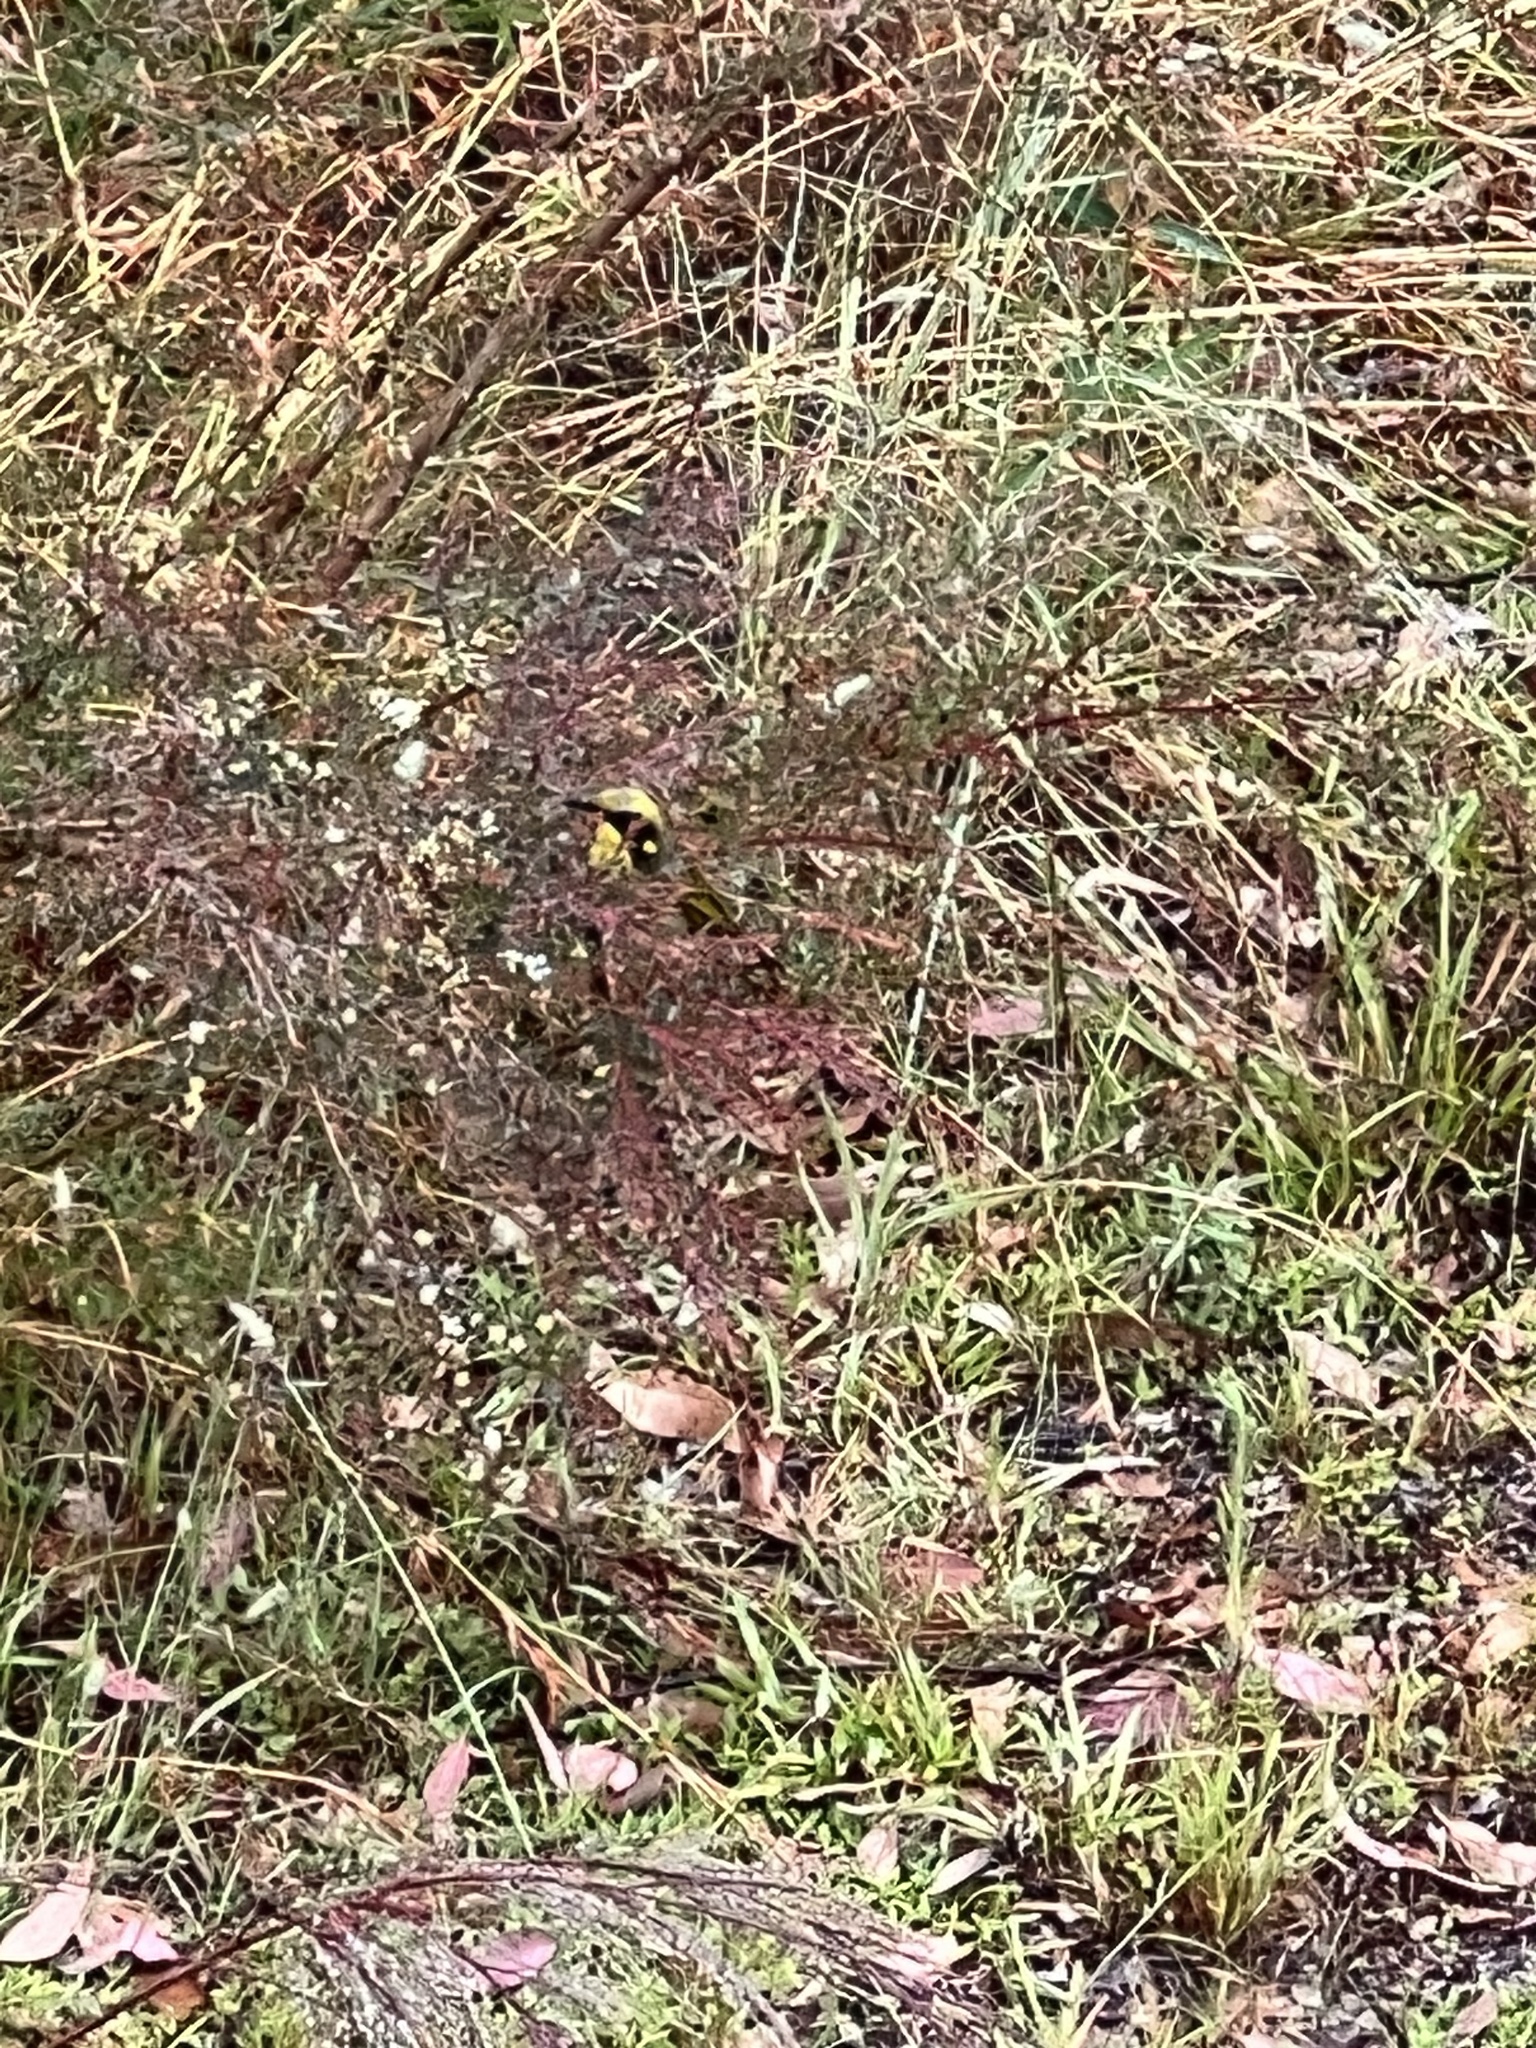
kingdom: Animalia
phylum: Chordata
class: Aves
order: Passeriformes
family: Meliphagidae
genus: Lichenostomus
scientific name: Lichenostomus melanops
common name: Yellow-tufted honeyeater
